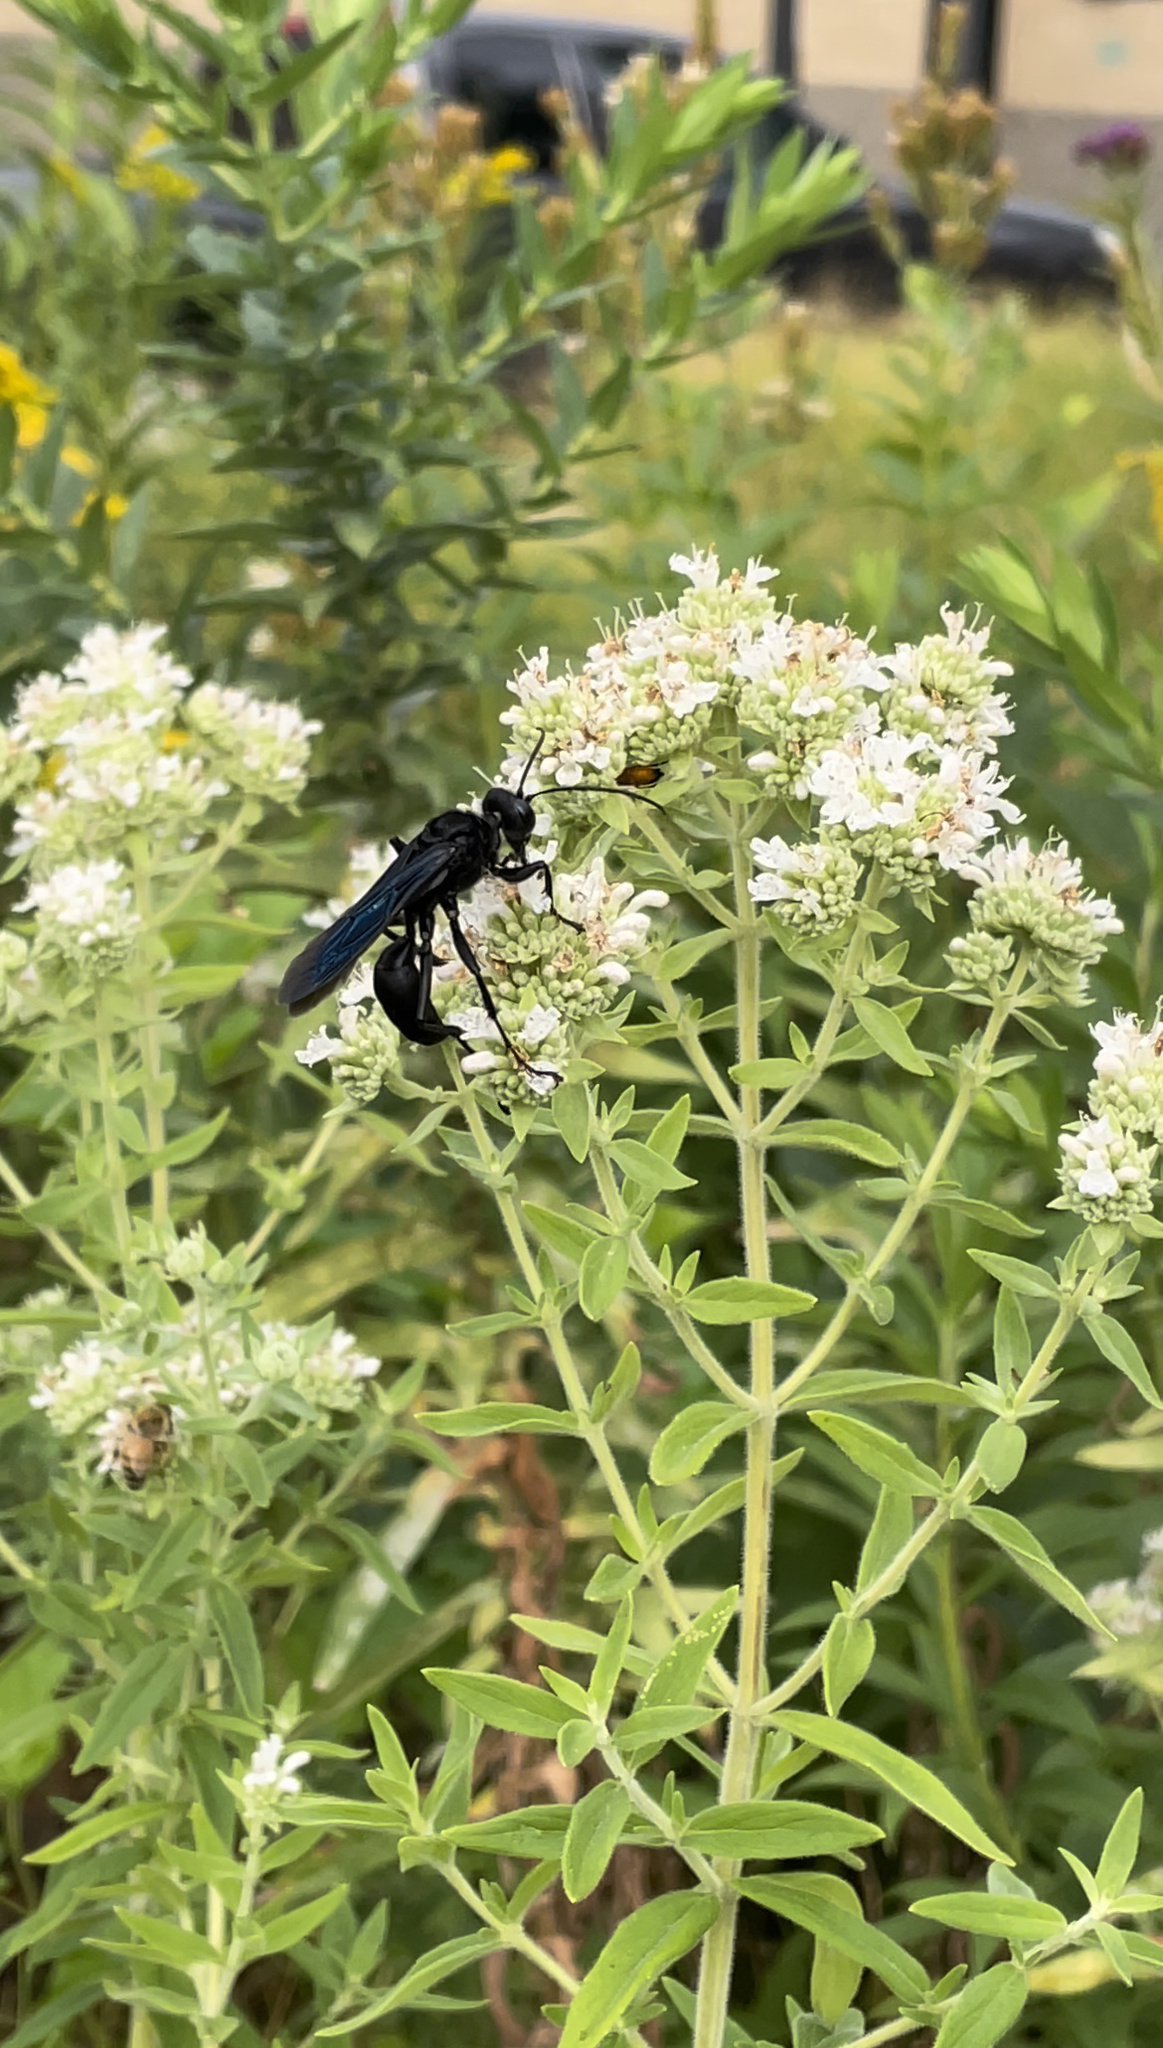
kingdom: Animalia
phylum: Arthropoda
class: Insecta
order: Hymenoptera
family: Sphecidae
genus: Sphex
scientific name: Sphex pensylvanicus
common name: Great black digger wasp
